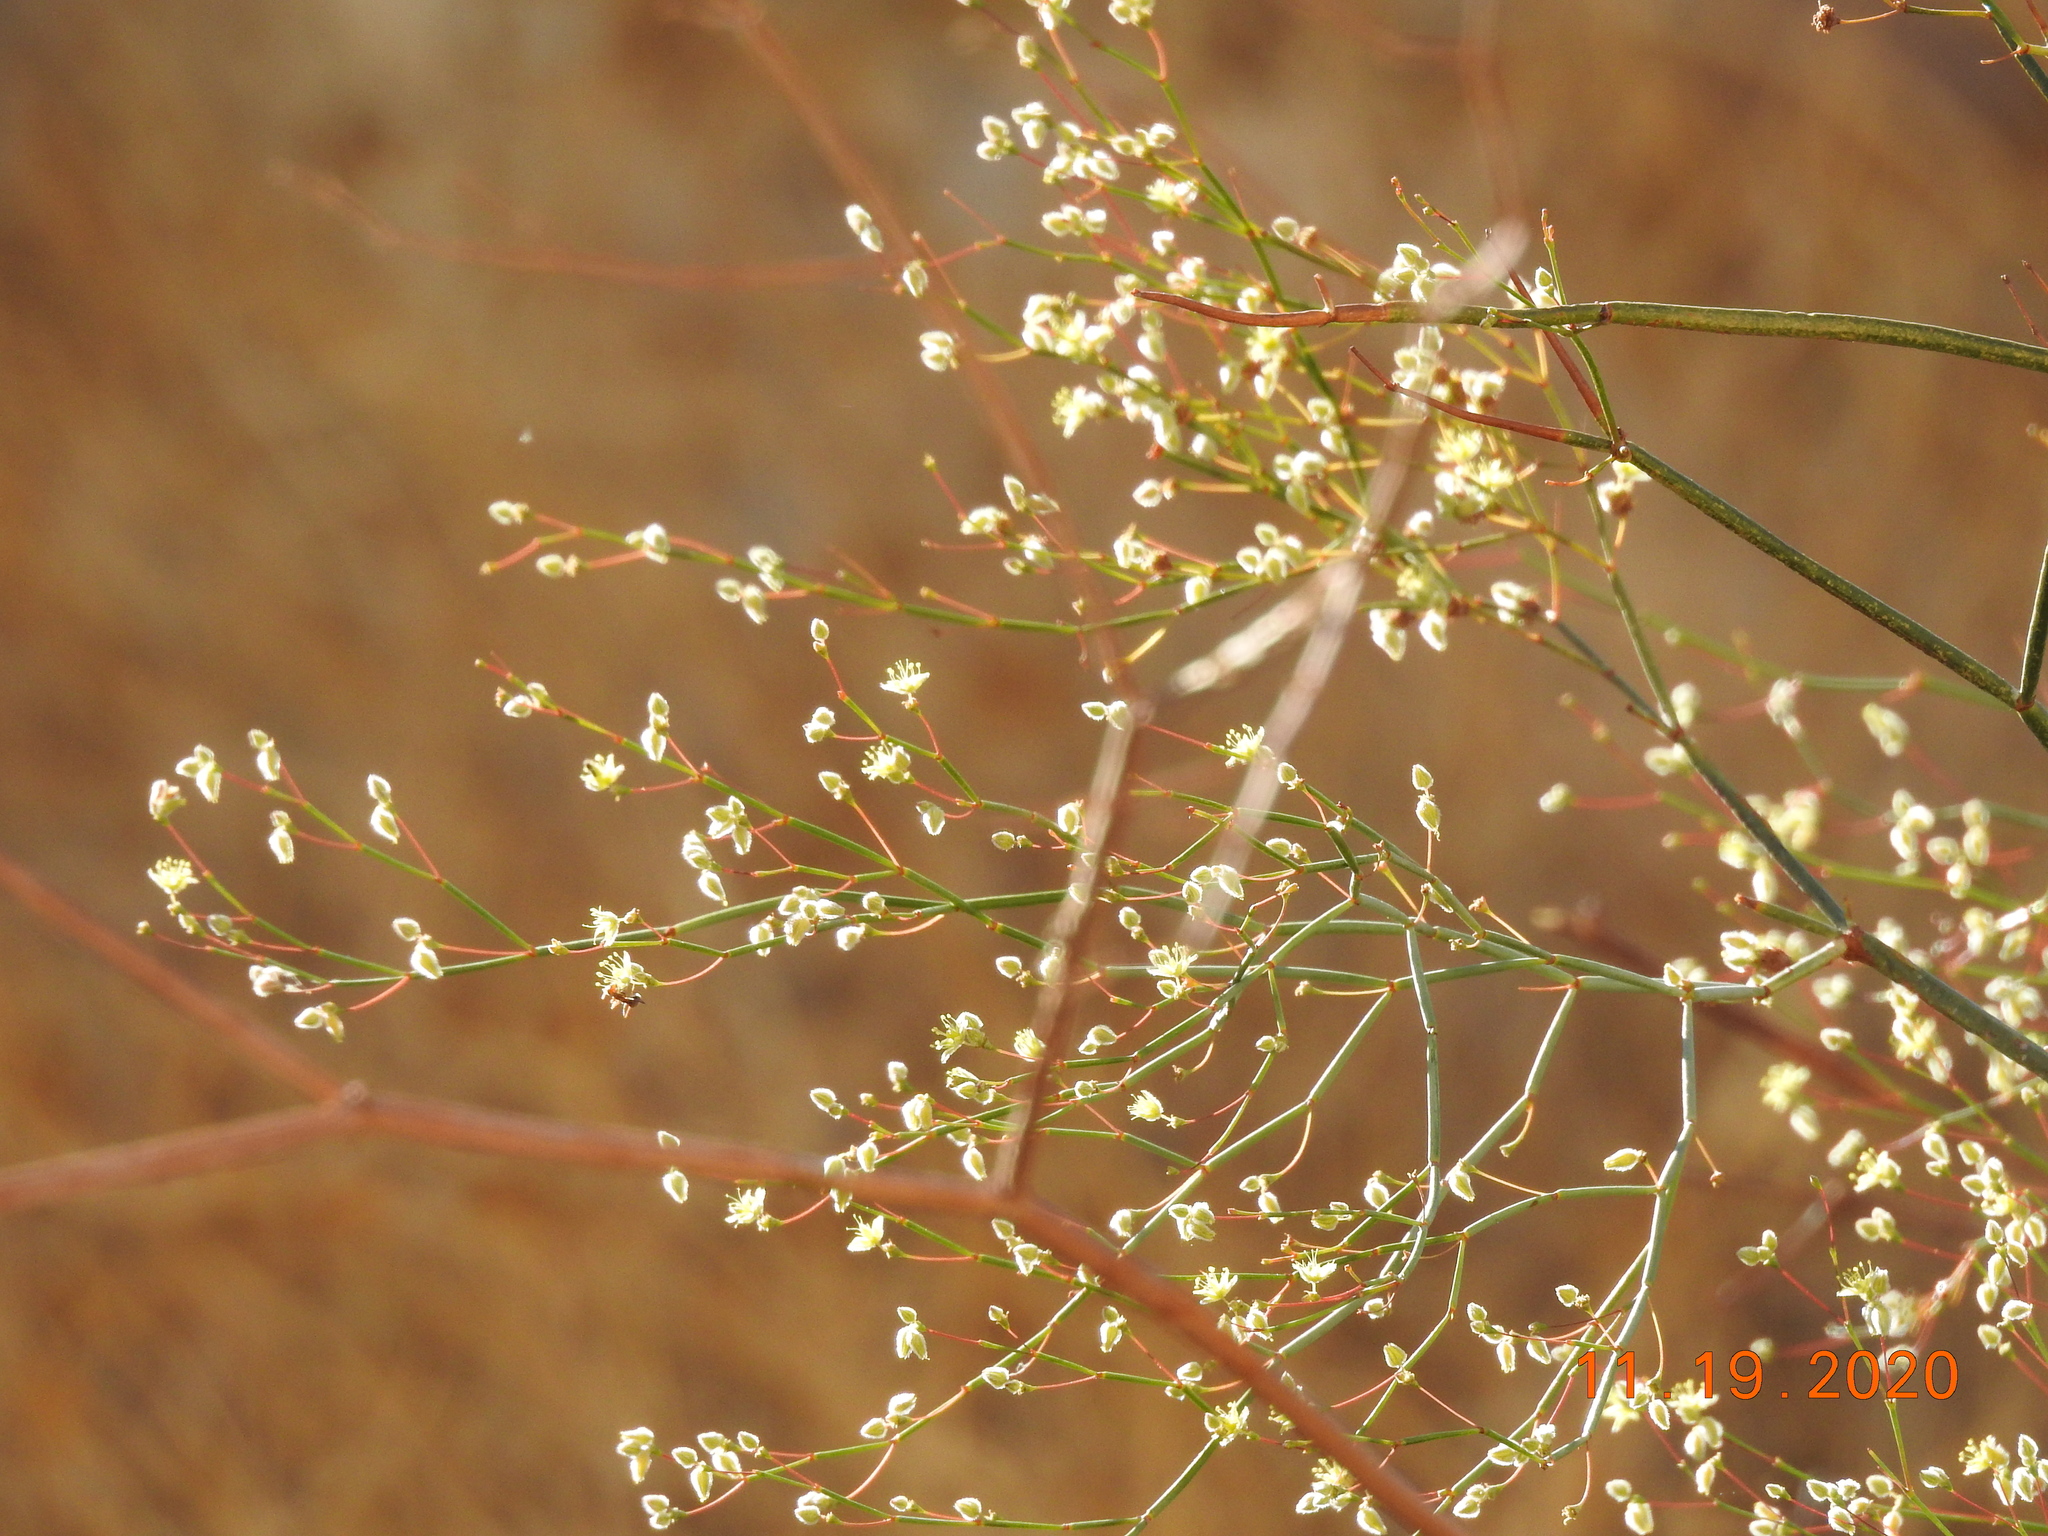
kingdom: Plantae
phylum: Tracheophyta
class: Magnoliopsida
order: Caryophyllales
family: Polygonaceae
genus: Eriogonum
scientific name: Eriogonum inflatum
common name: Desert trumpet
